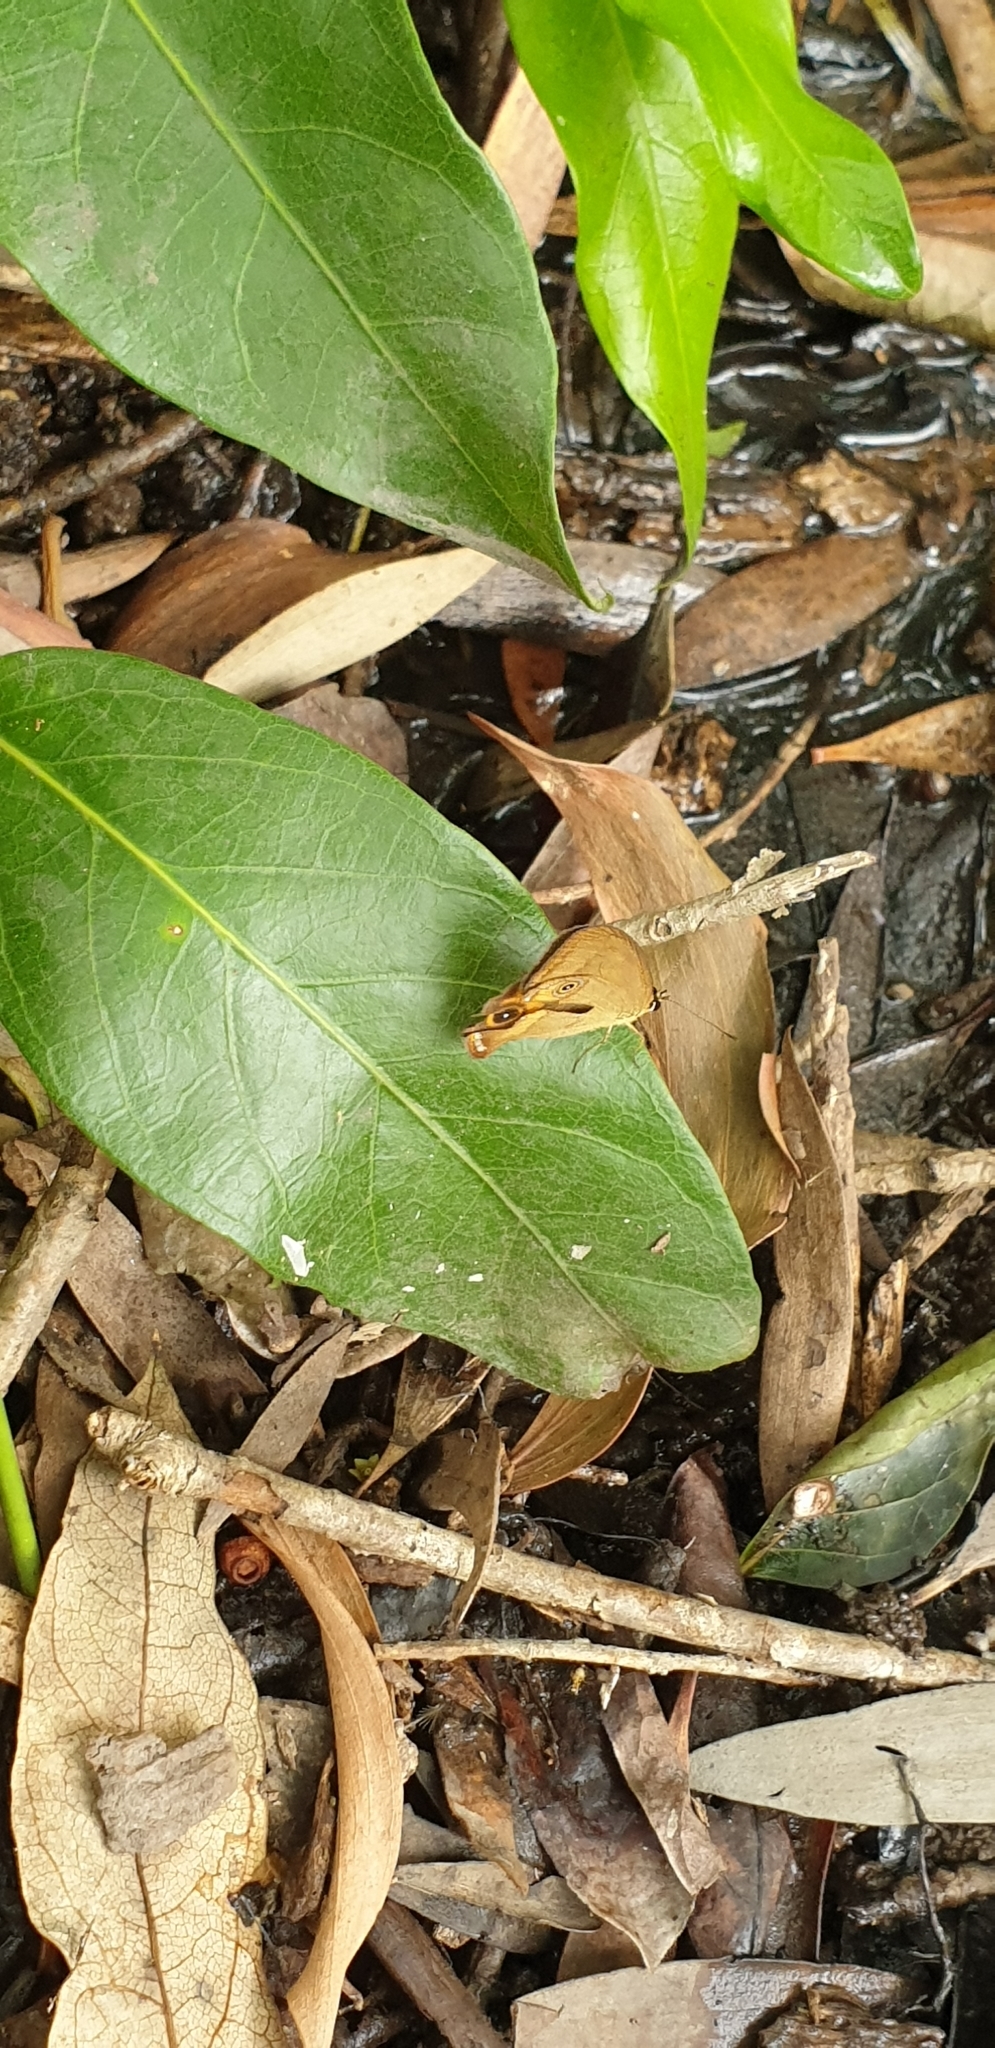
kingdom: Animalia
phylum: Arthropoda
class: Insecta
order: Lepidoptera
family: Nymphalidae
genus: Hypocysta
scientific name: Hypocysta metirius
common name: Brown ringlet
